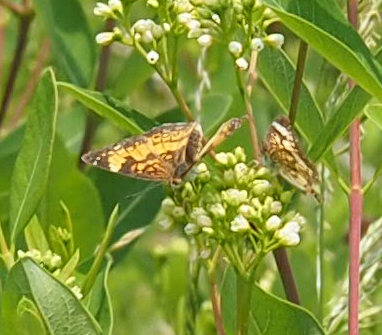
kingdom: Animalia
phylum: Arthropoda
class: Insecta
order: Lepidoptera
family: Nymphalidae
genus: Chlosyne
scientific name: Chlosyne nycteis
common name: Silvery checkerspot
